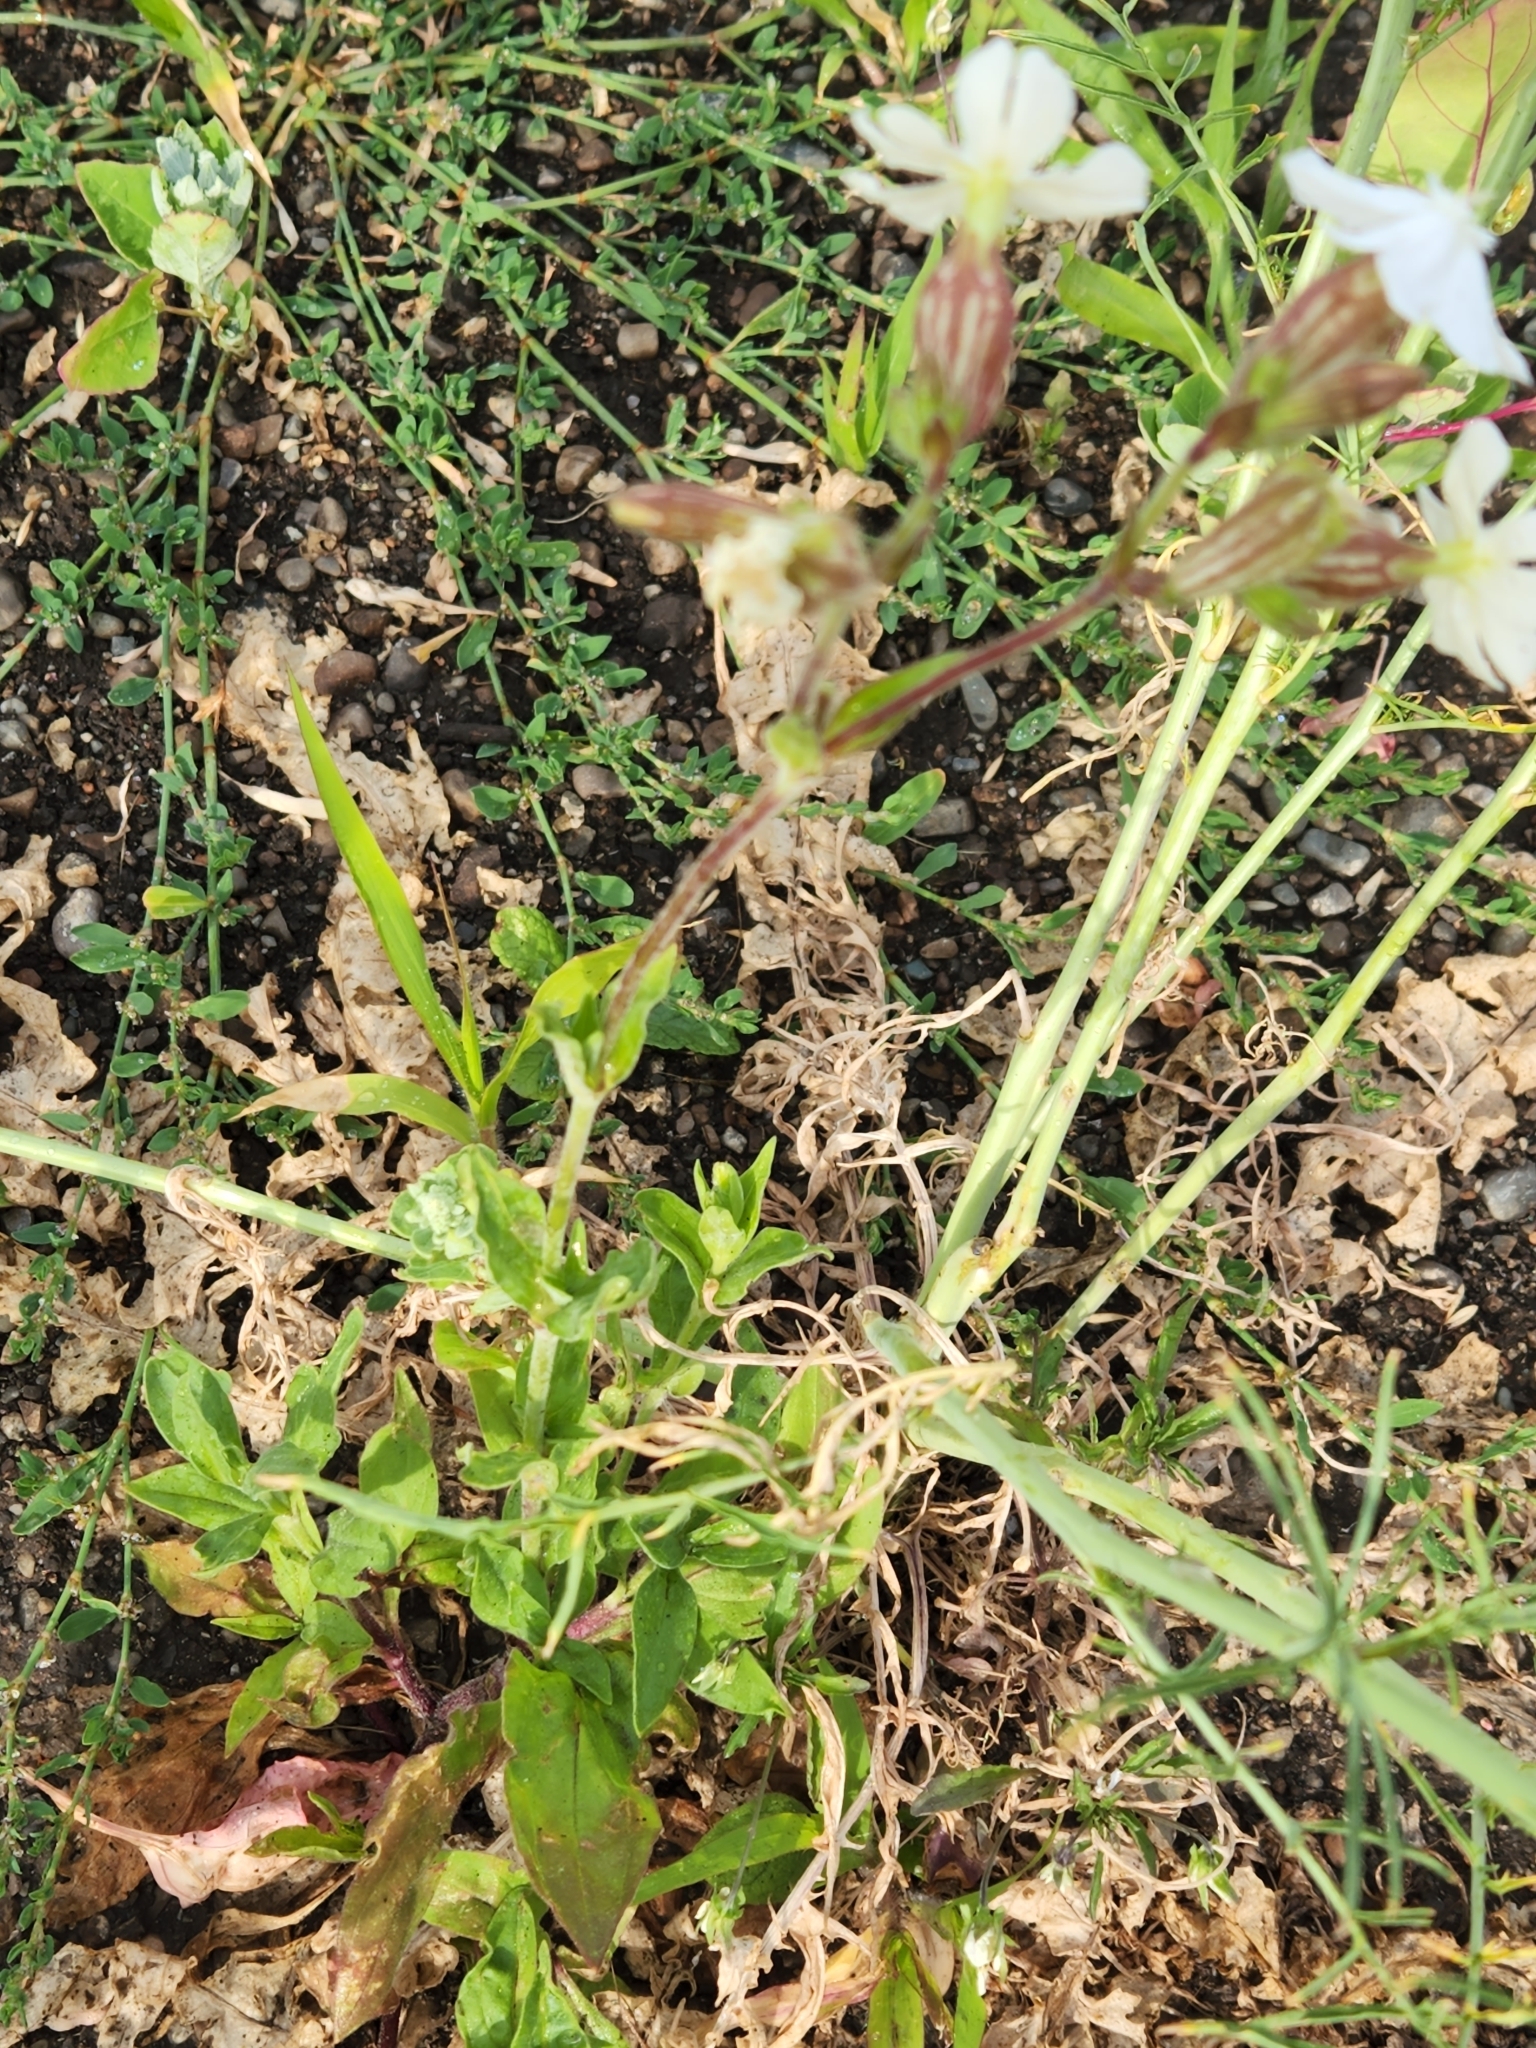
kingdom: Plantae
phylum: Tracheophyta
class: Magnoliopsida
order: Caryophyllales
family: Caryophyllaceae
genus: Silene
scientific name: Silene latifolia
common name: White campion
